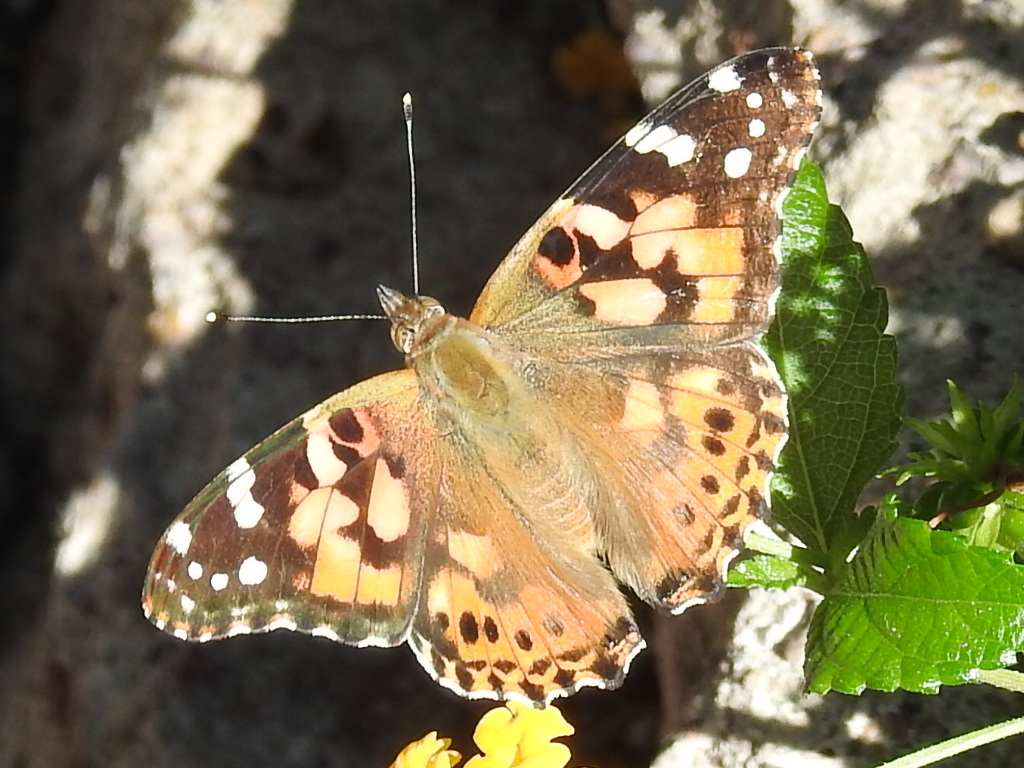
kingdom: Animalia
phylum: Arthropoda
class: Insecta
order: Lepidoptera
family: Nymphalidae
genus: Vanessa
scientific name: Vanessa cardui
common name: Painted lady
